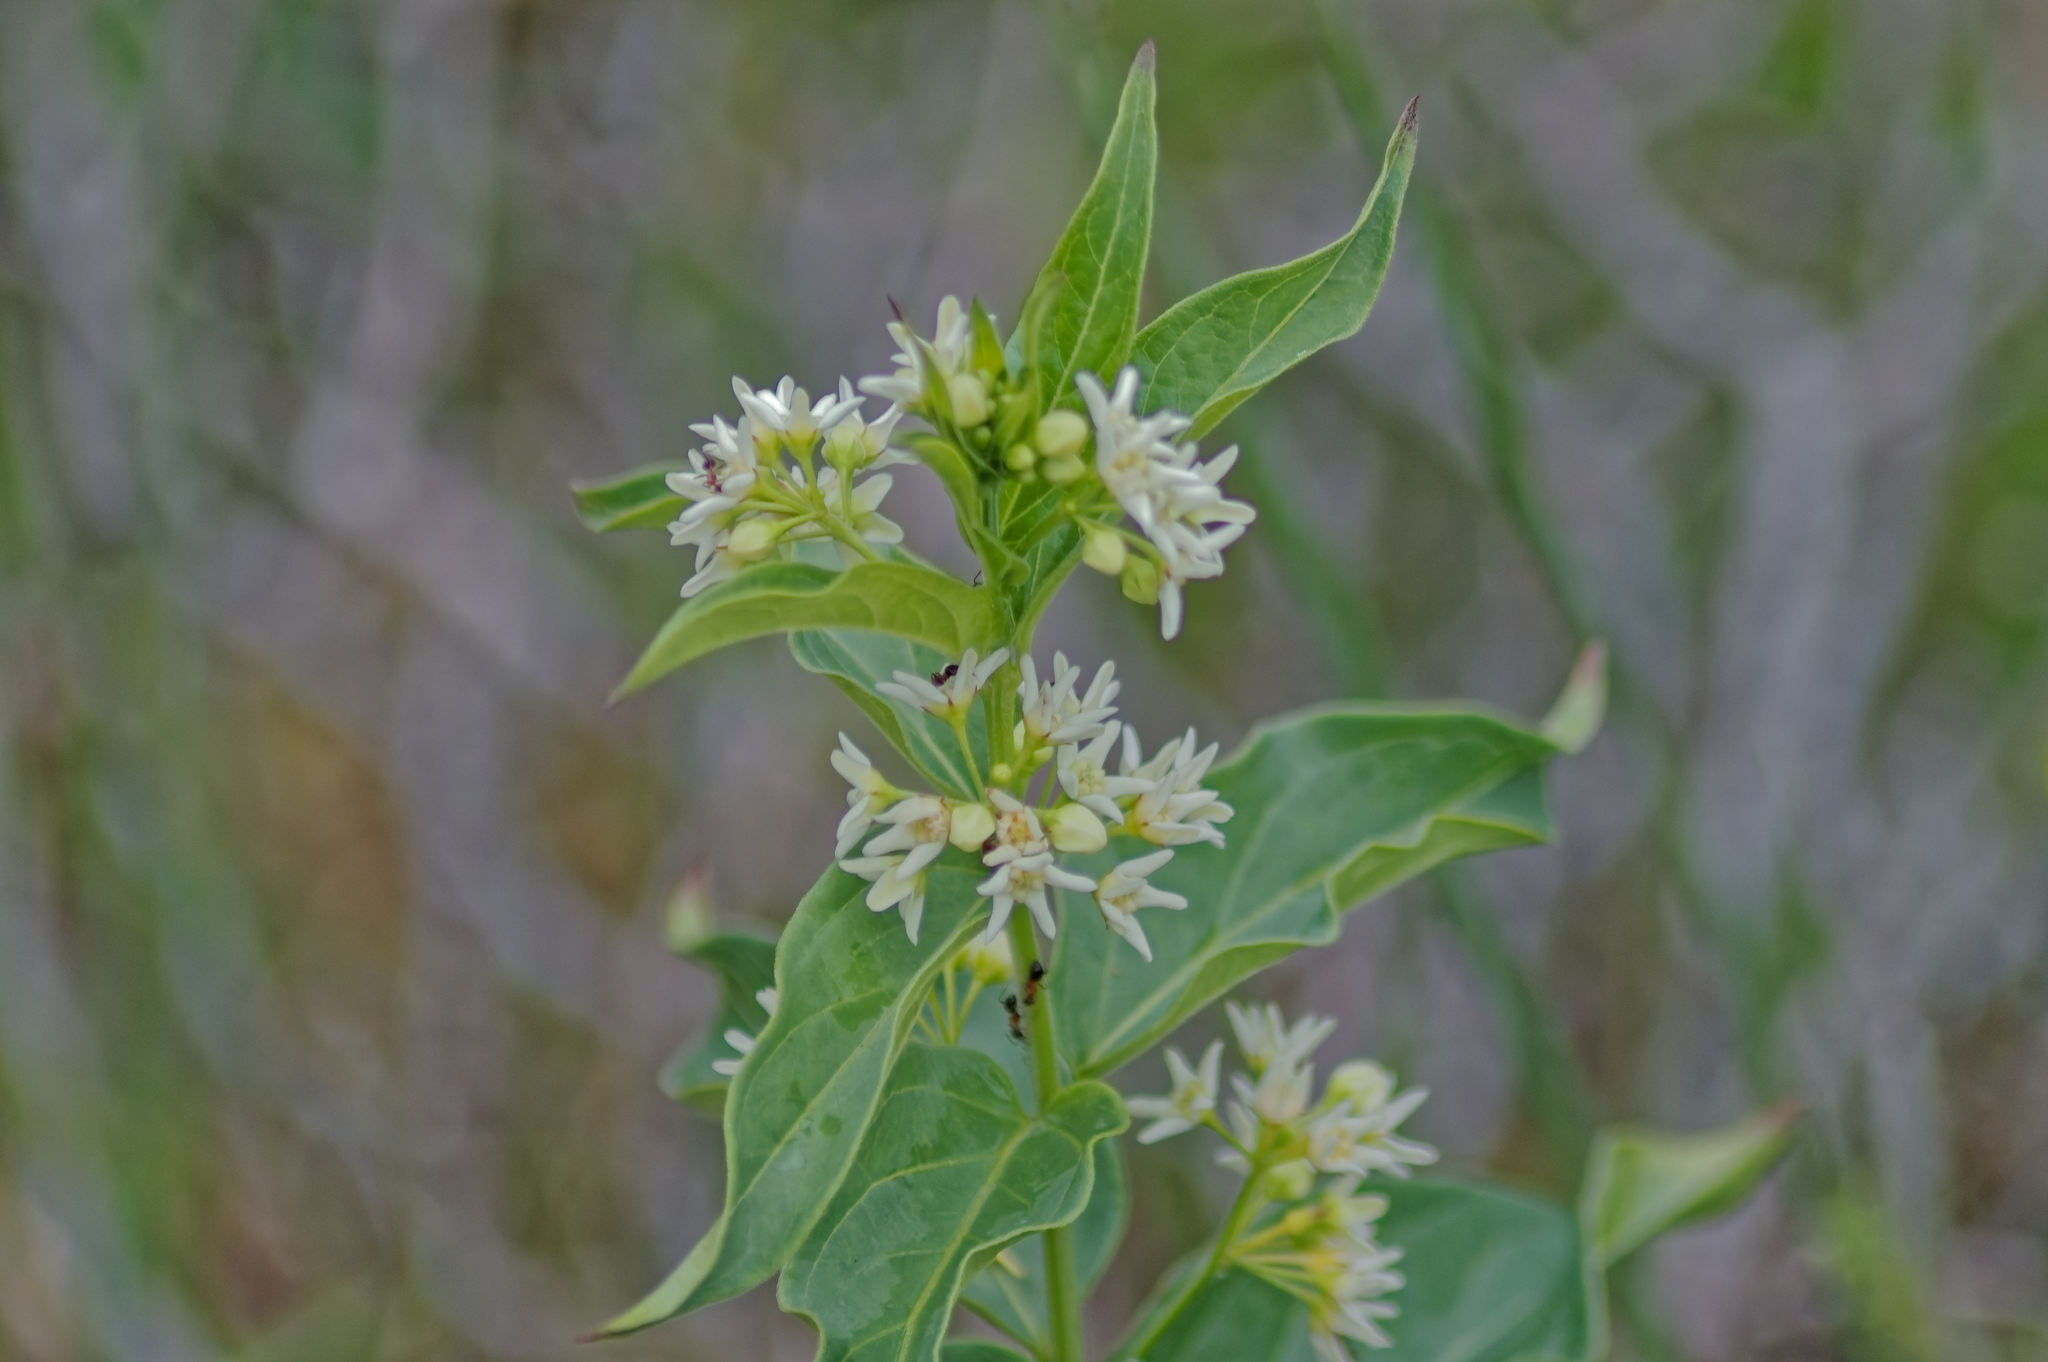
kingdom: Plantae
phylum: Tracheophyta
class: Magnoliopsida
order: Gentianales
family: Apocynaceae
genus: Vincetoxicum
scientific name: Vincetoxicum hirundinaria
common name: White swallowwort
